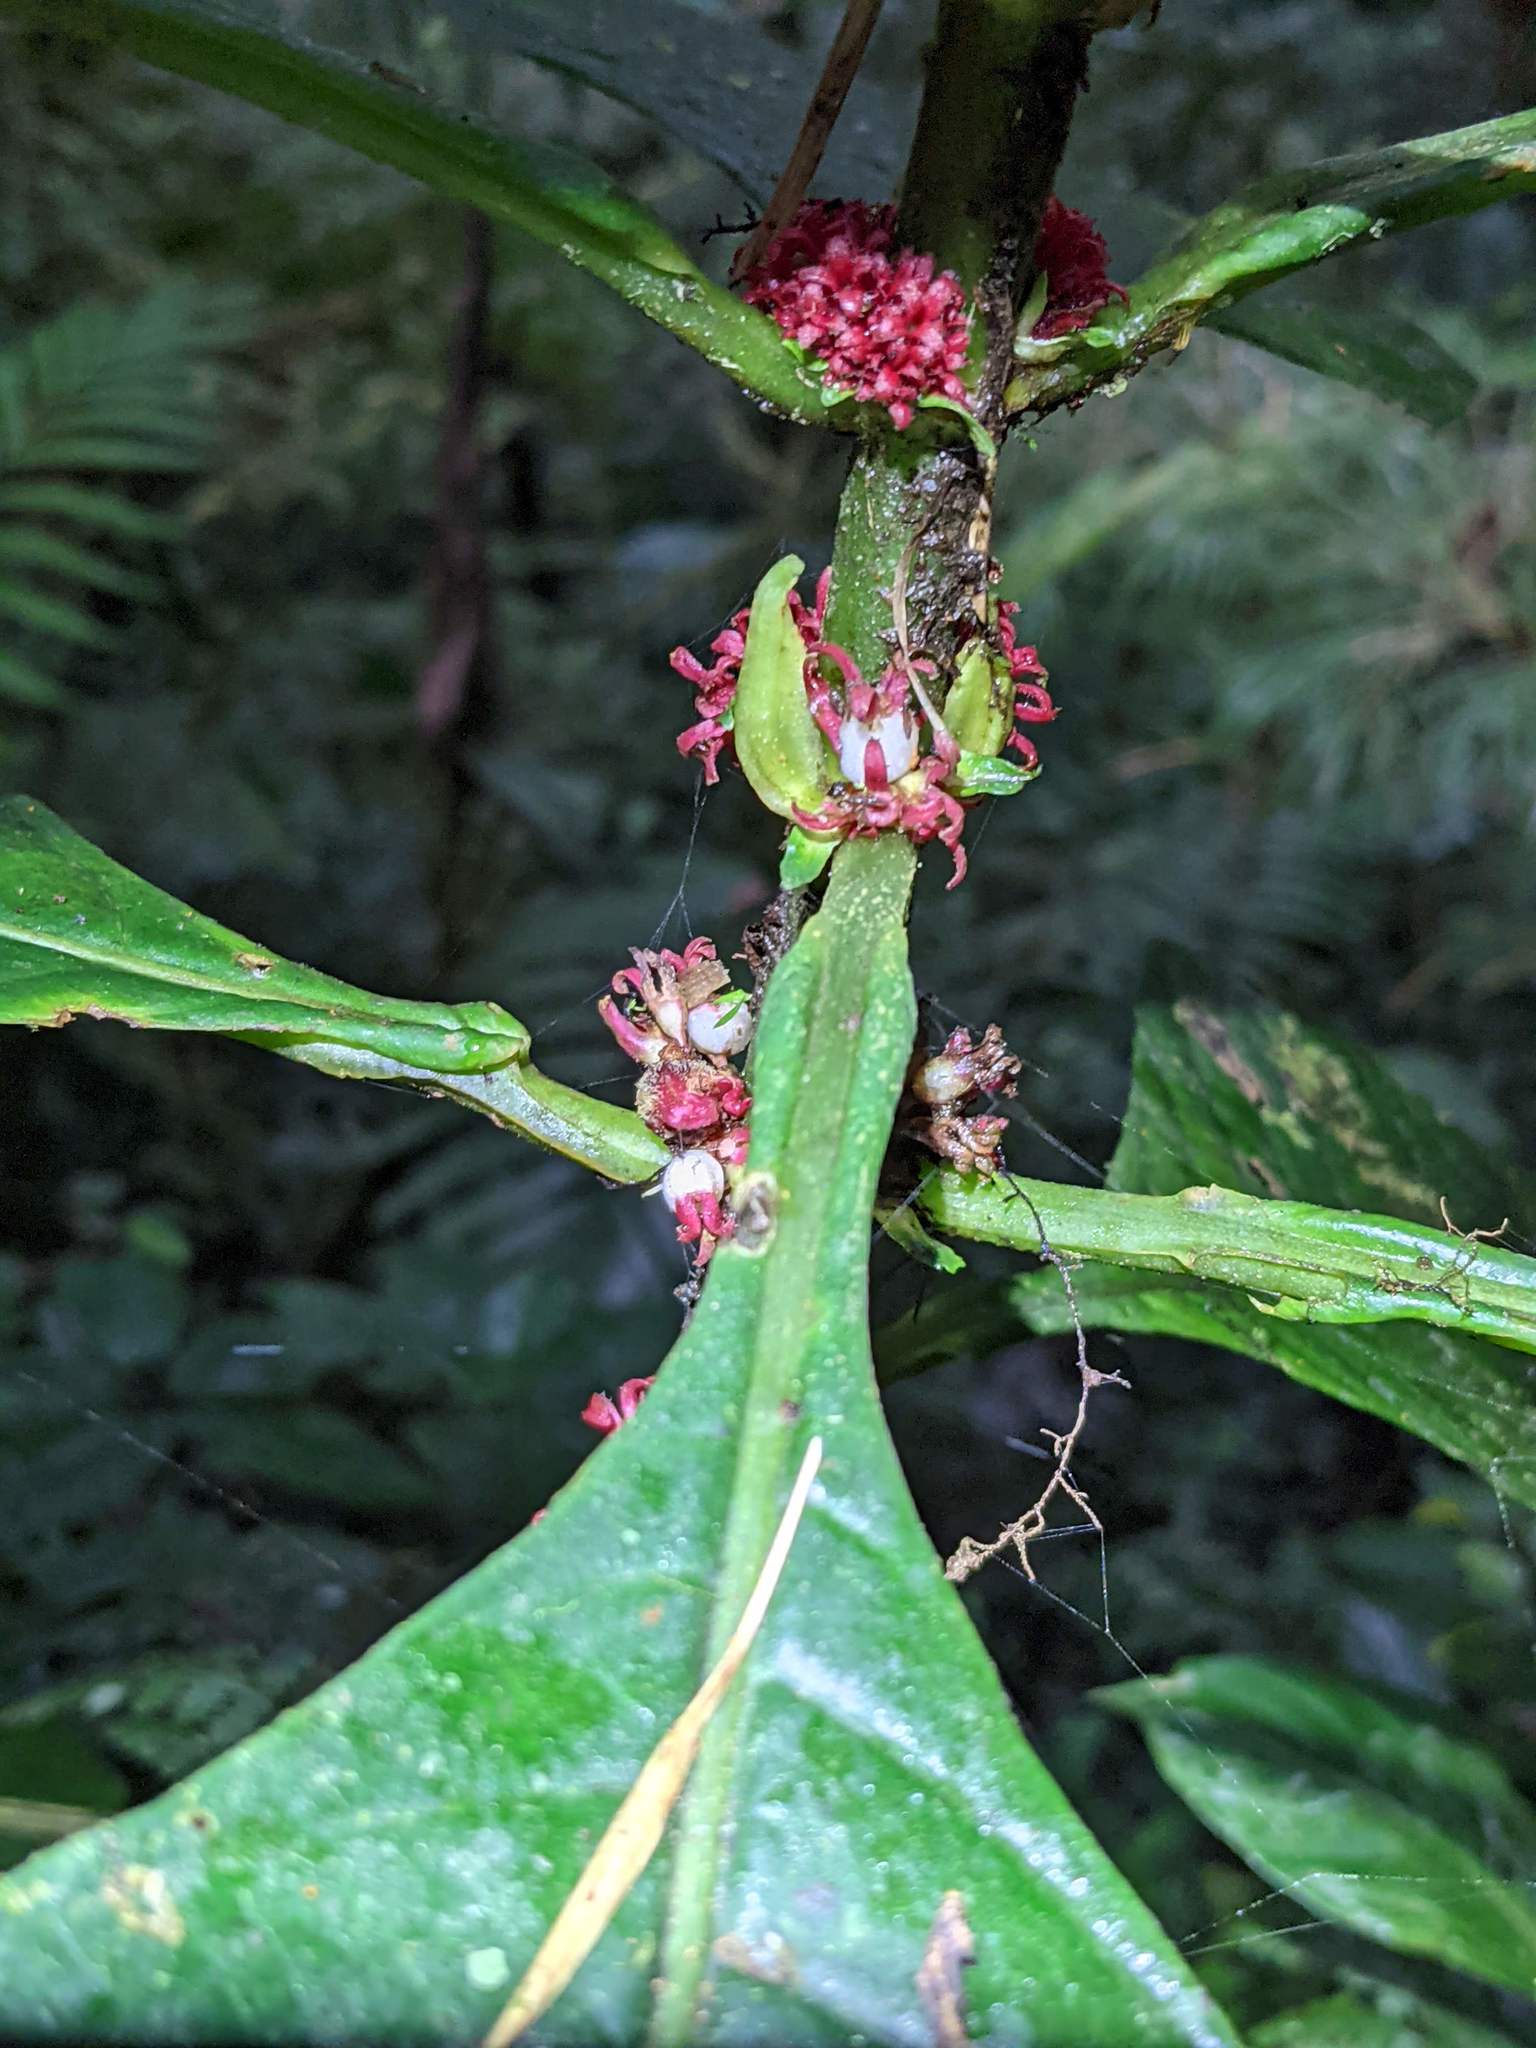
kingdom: Plantae
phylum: Tracheophyta
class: Magnoliopsida
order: Gentianales
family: Rubiaceae
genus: Hoffmannia
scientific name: Hoffmannia congesta
